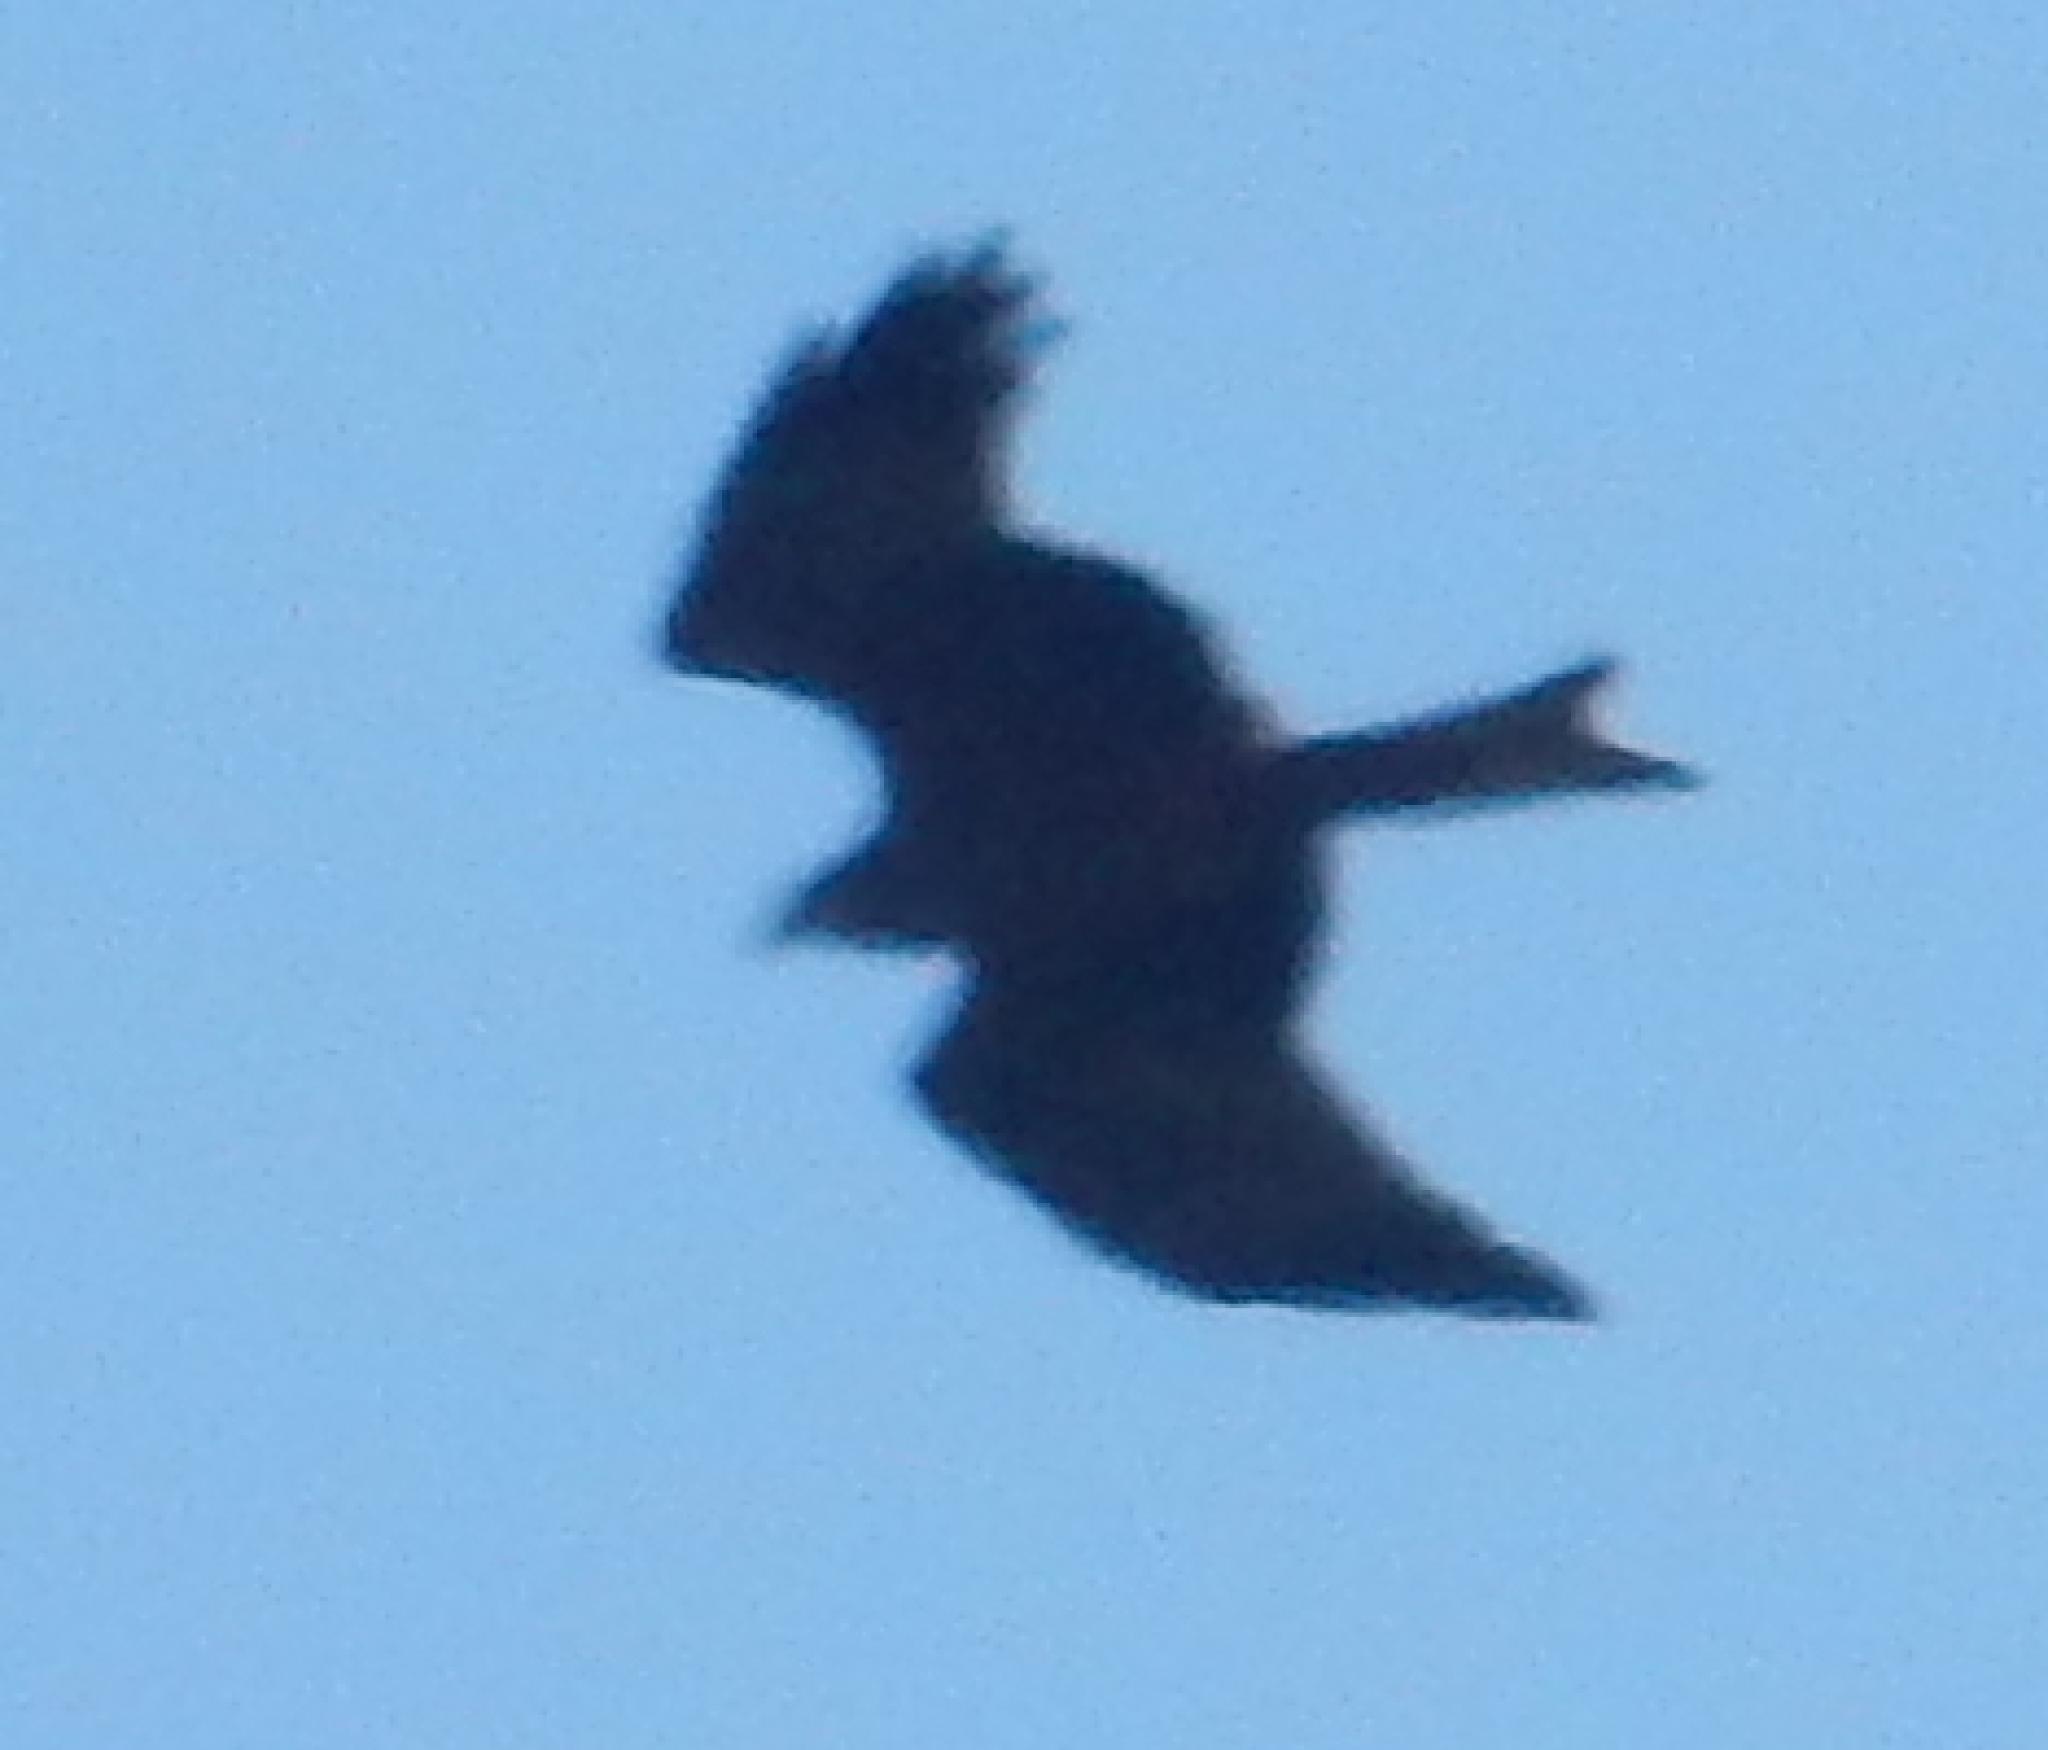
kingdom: Animalia
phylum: Chordata
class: Aves
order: Accipitriformes
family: Accipitridae
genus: Milvus
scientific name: Milvus migrans
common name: Black kite
